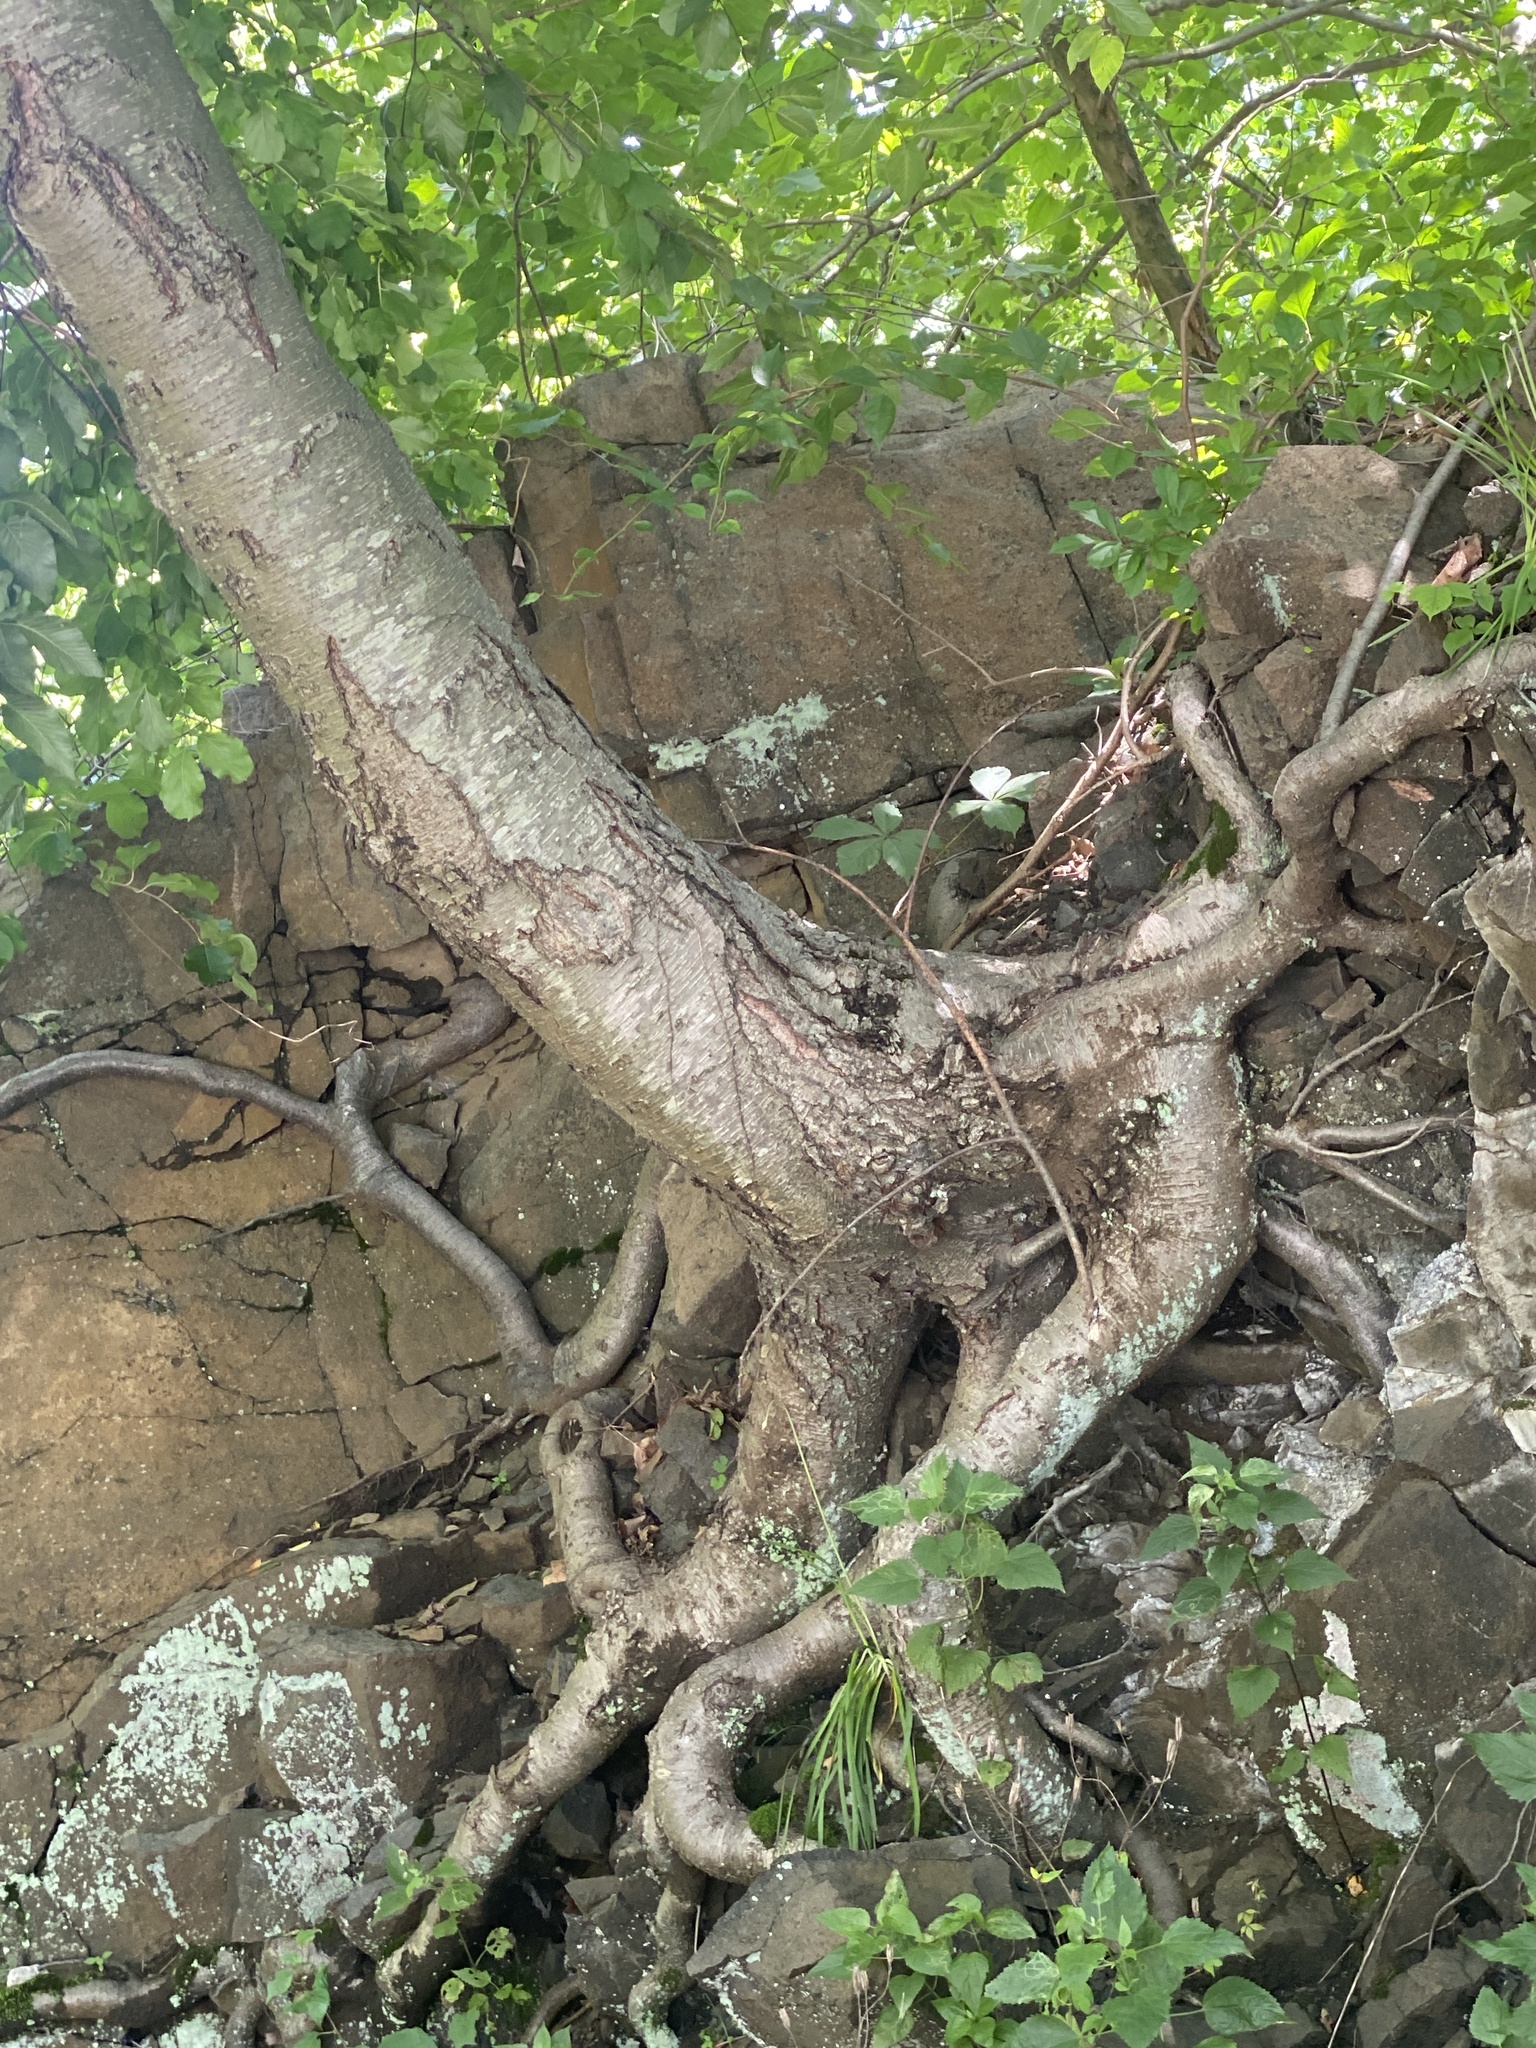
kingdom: Plantae
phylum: Tracheophyta
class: Magnoliopsida
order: Fagales
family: Betulaceae
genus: Betula
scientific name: Betula lenta
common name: Black birch
